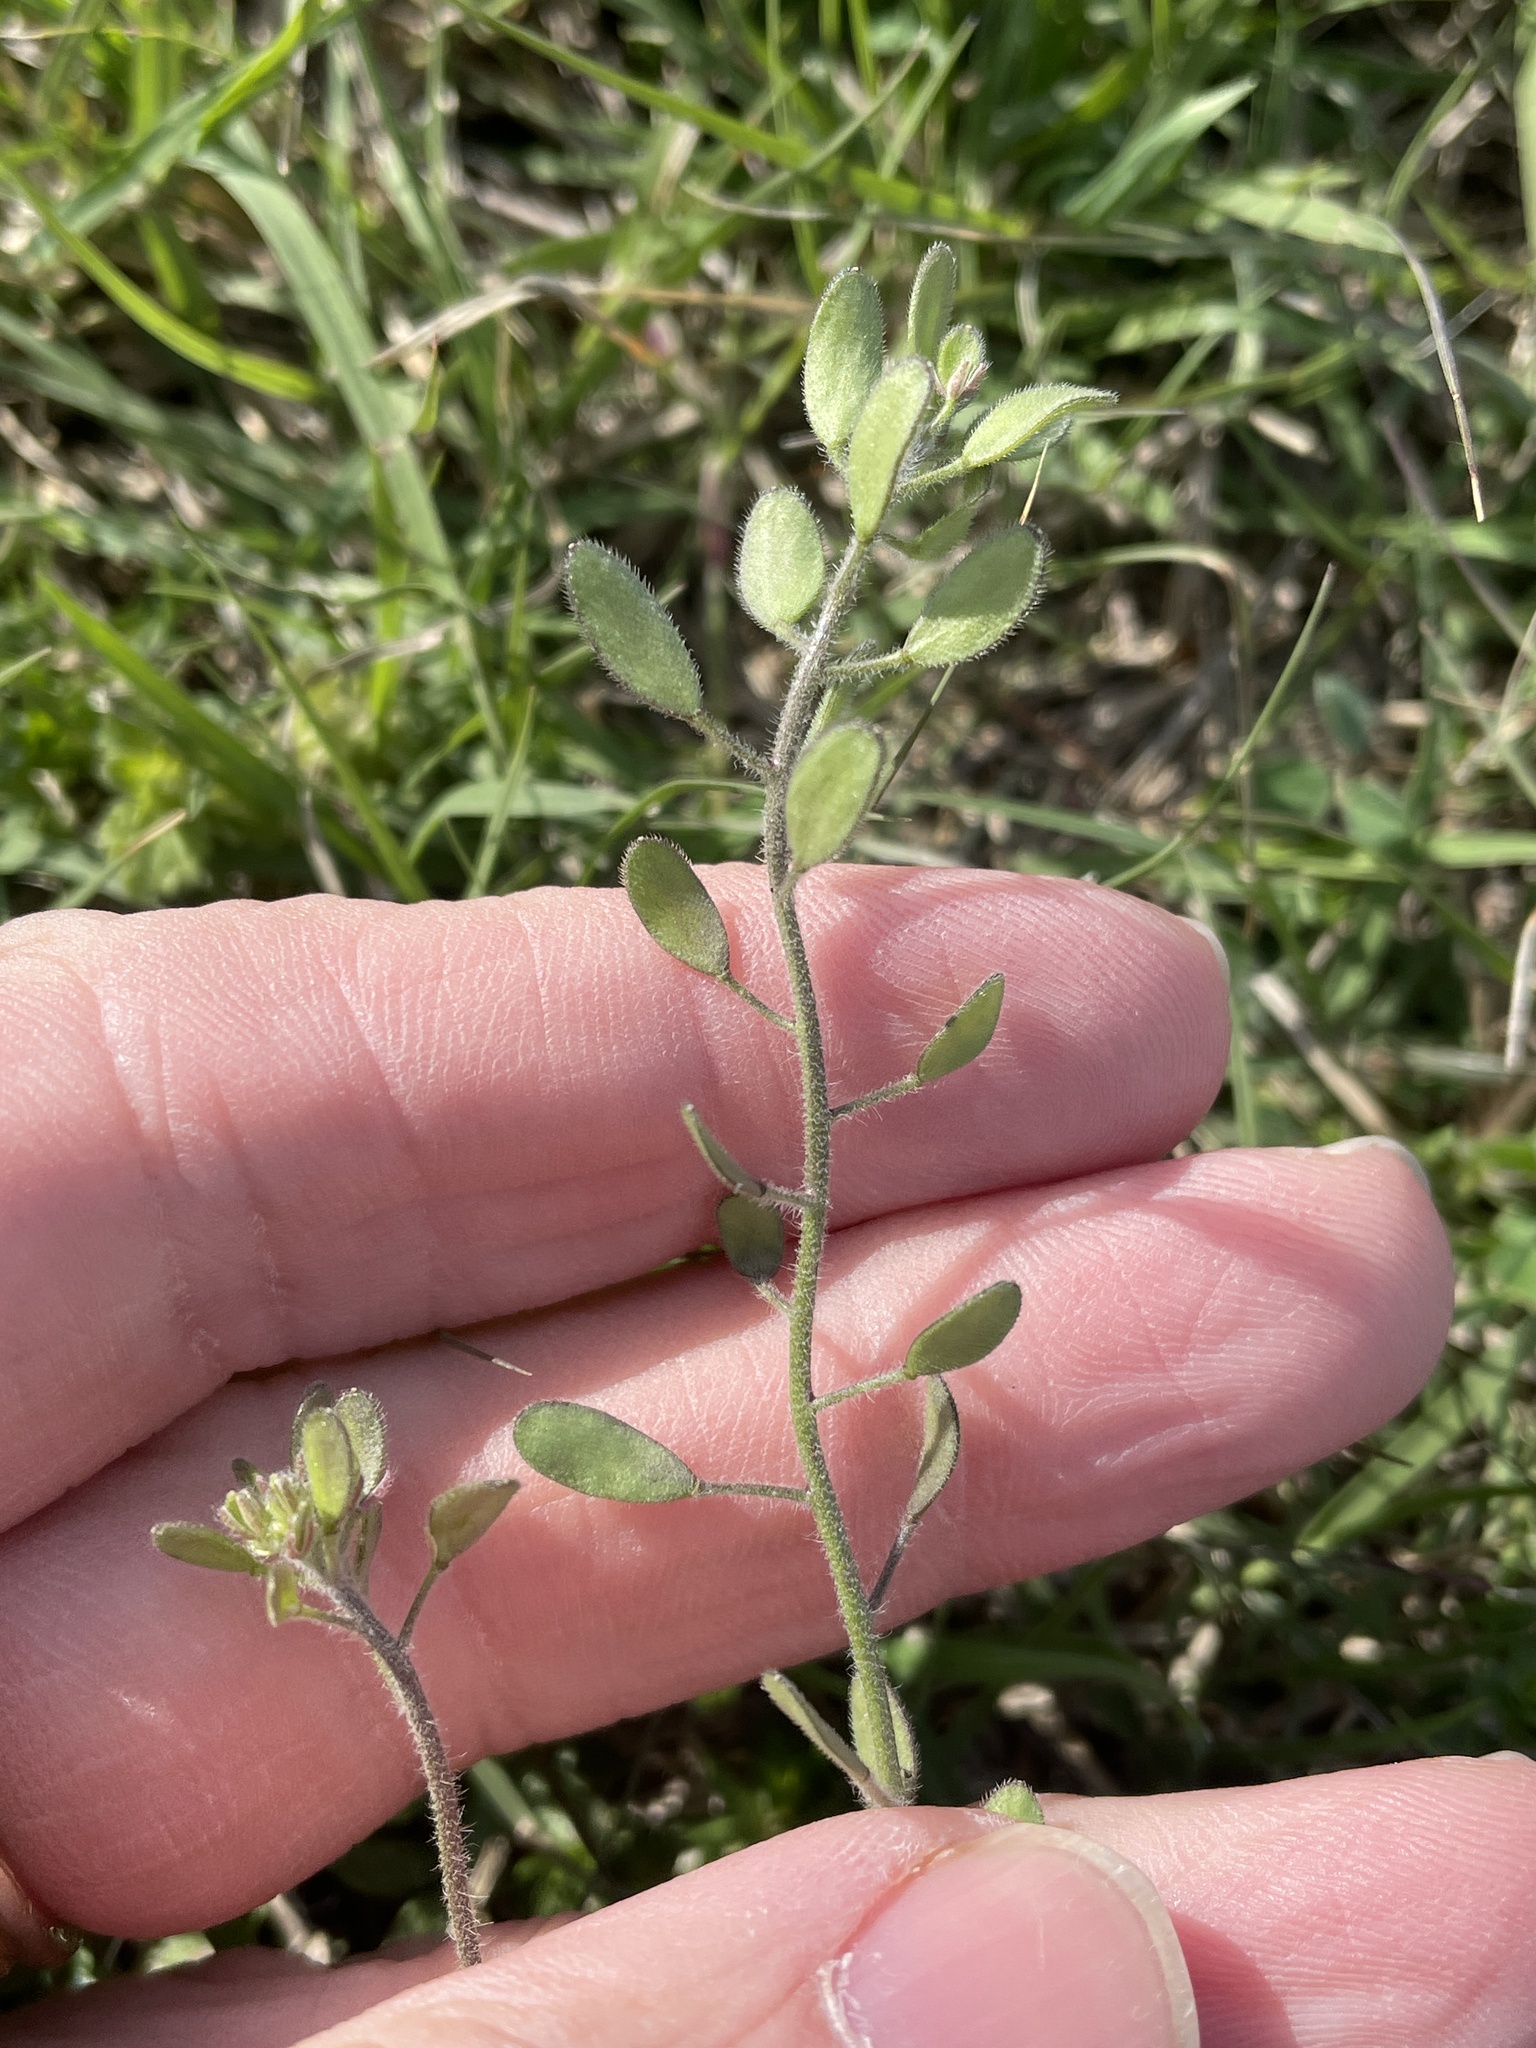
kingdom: Plantae
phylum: Tracheophyta
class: Magnoliopsida
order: Brassicales
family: Brassicaceae
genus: Tomostima
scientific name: Tomostima platycarpa
